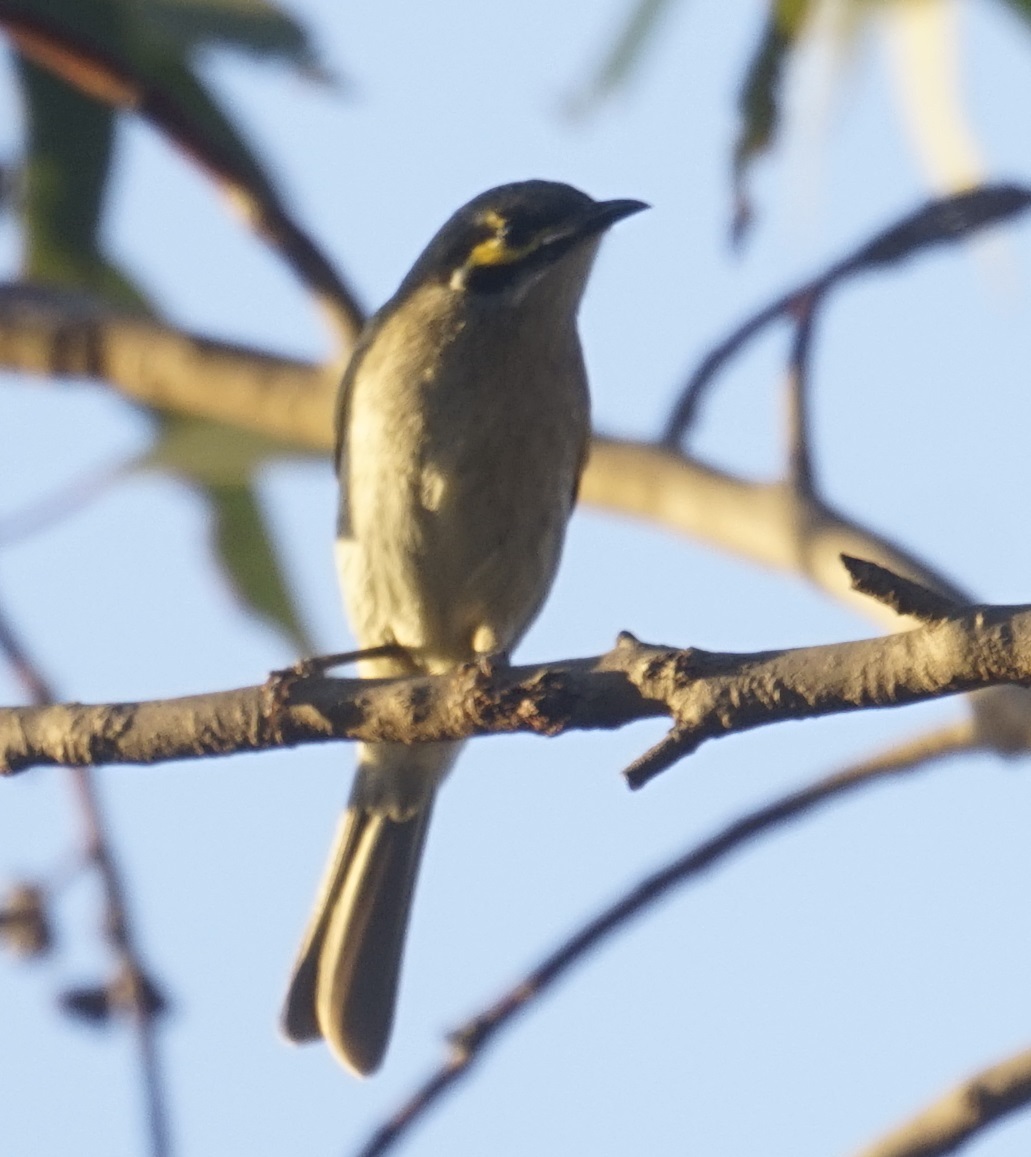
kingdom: Animalia
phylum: Chordata
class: Aves
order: Passeriformes
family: Meliphagidae
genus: Caligavis
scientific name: Caligavis chrysops
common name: Yellow-faced honeyeater
